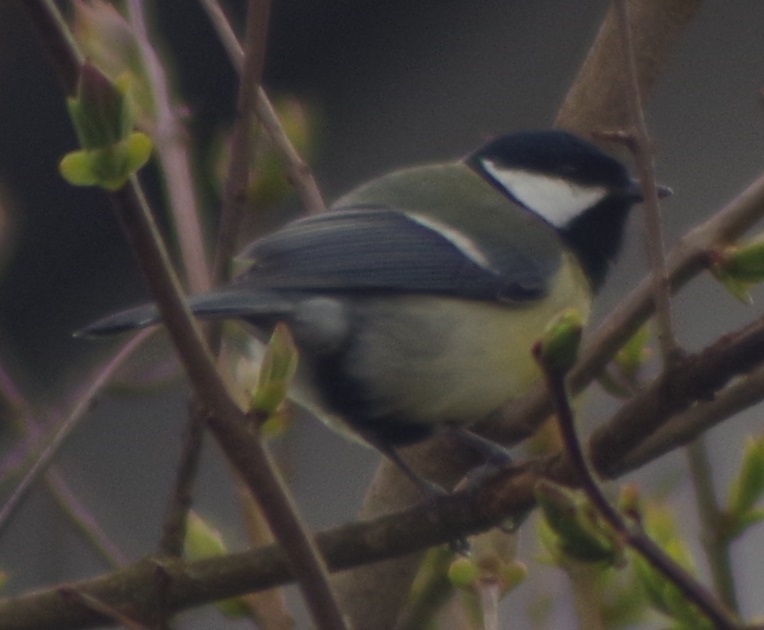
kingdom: Animalia
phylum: Chordata
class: Aves
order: Passeriformes
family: Paridae
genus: Parus
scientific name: Parus major
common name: Great tit
